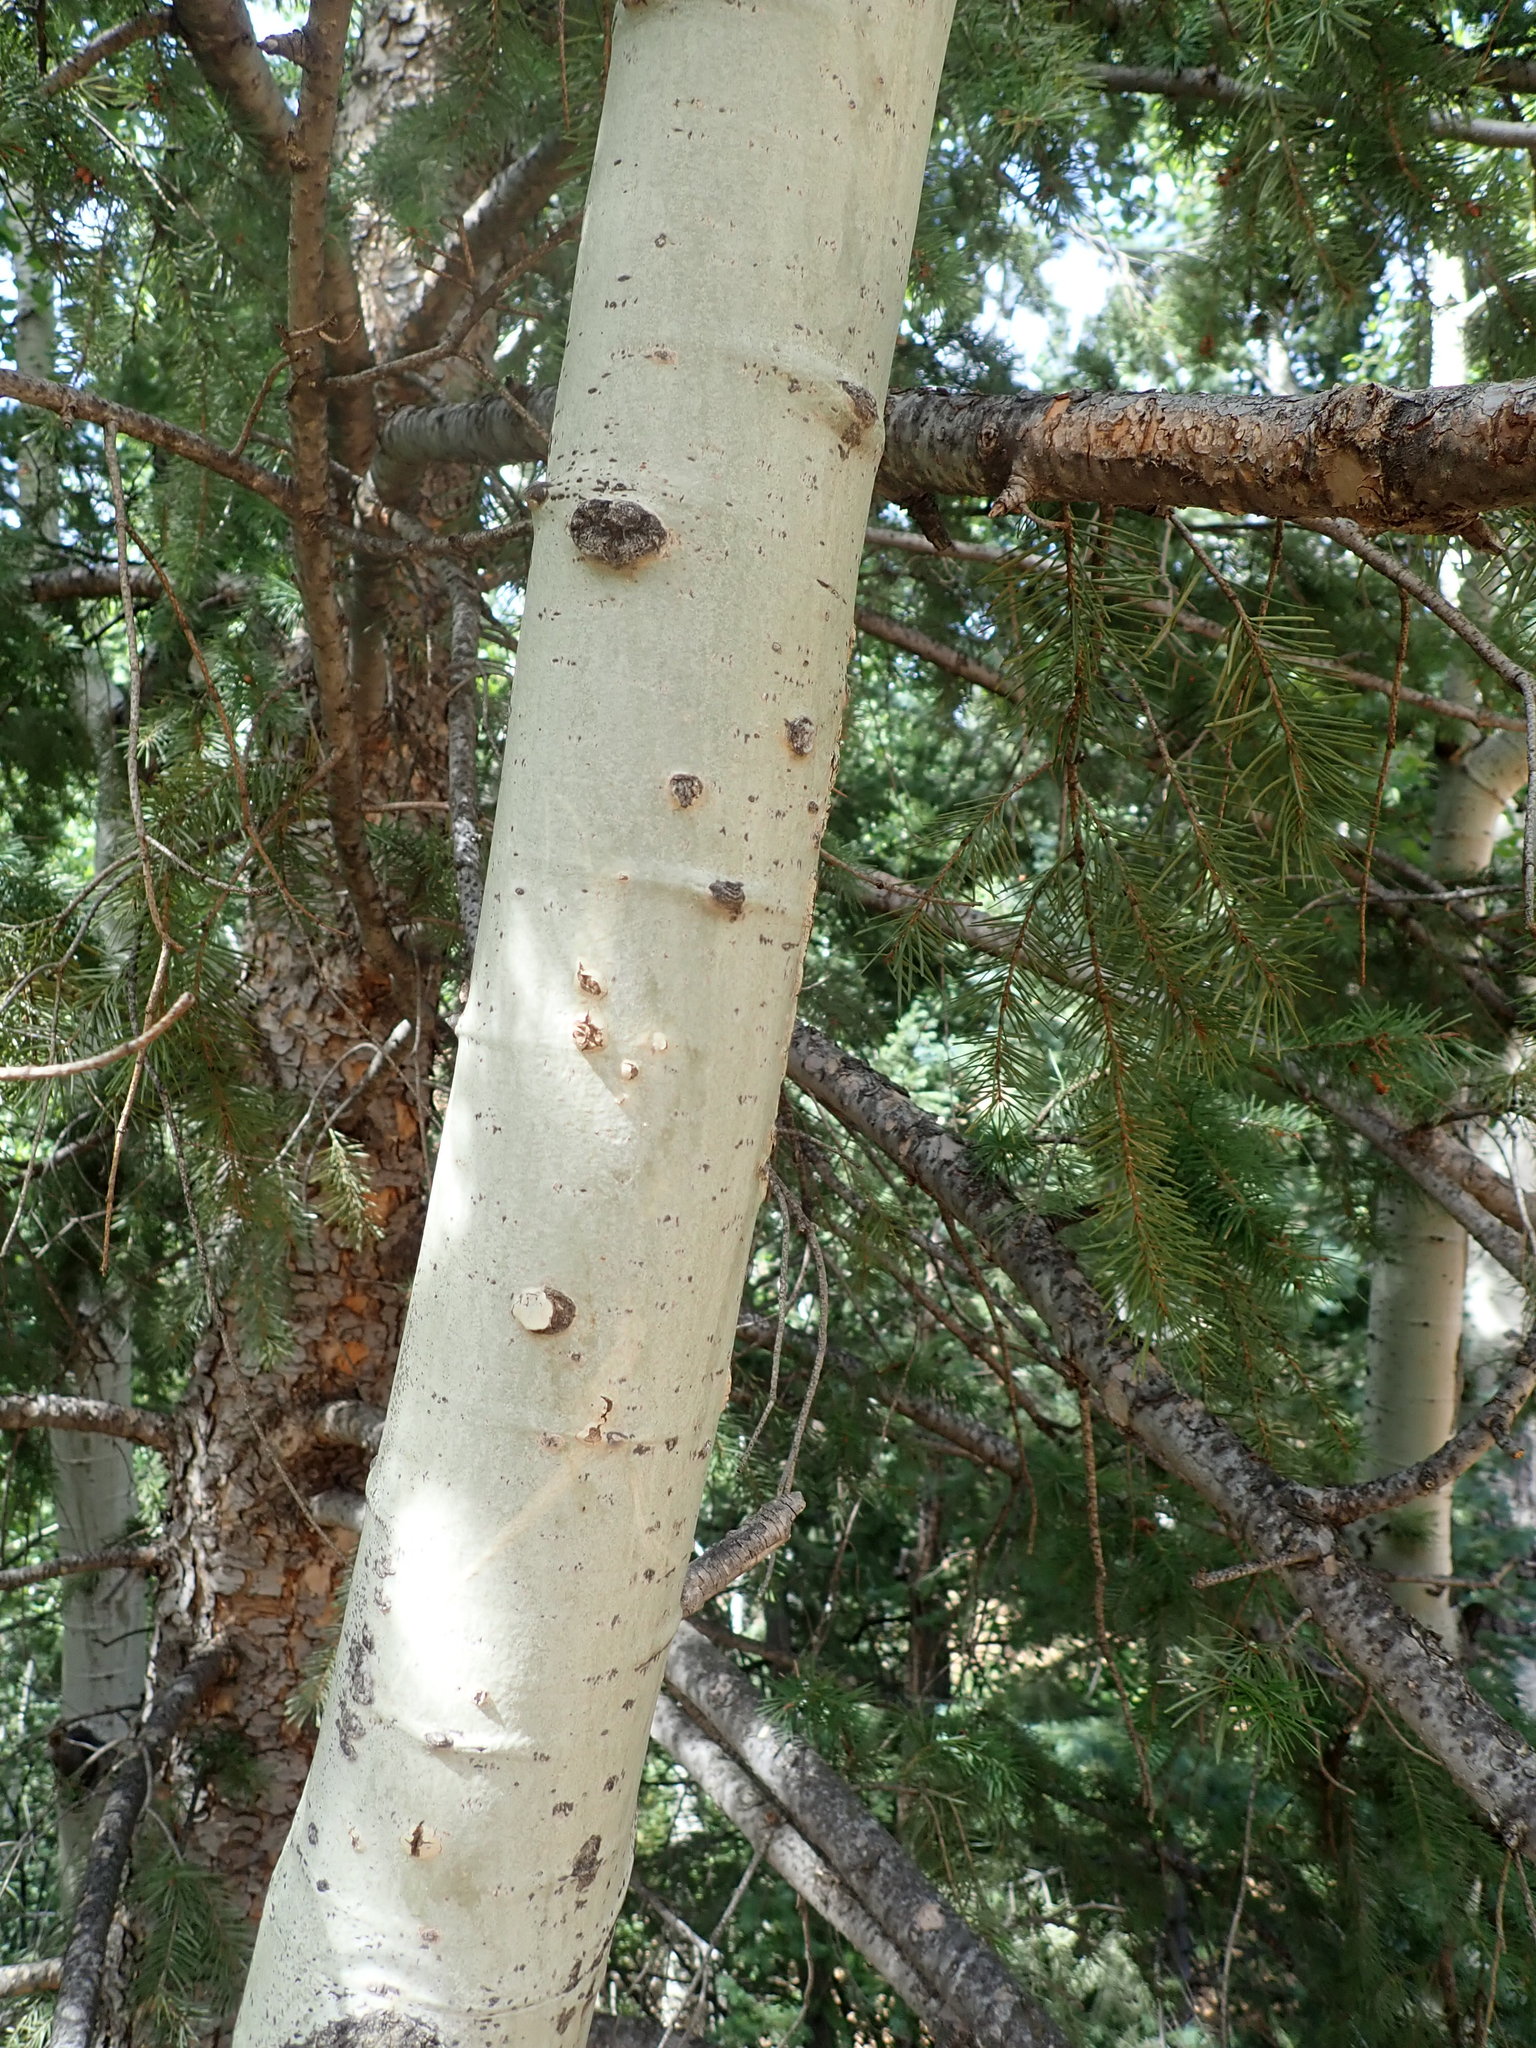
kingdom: Plantae
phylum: Tracheophyta
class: Magnoliopsida
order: Malpighiales
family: Salicaceae
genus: Populus
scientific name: Populus tremuloides
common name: Quaking aspen
